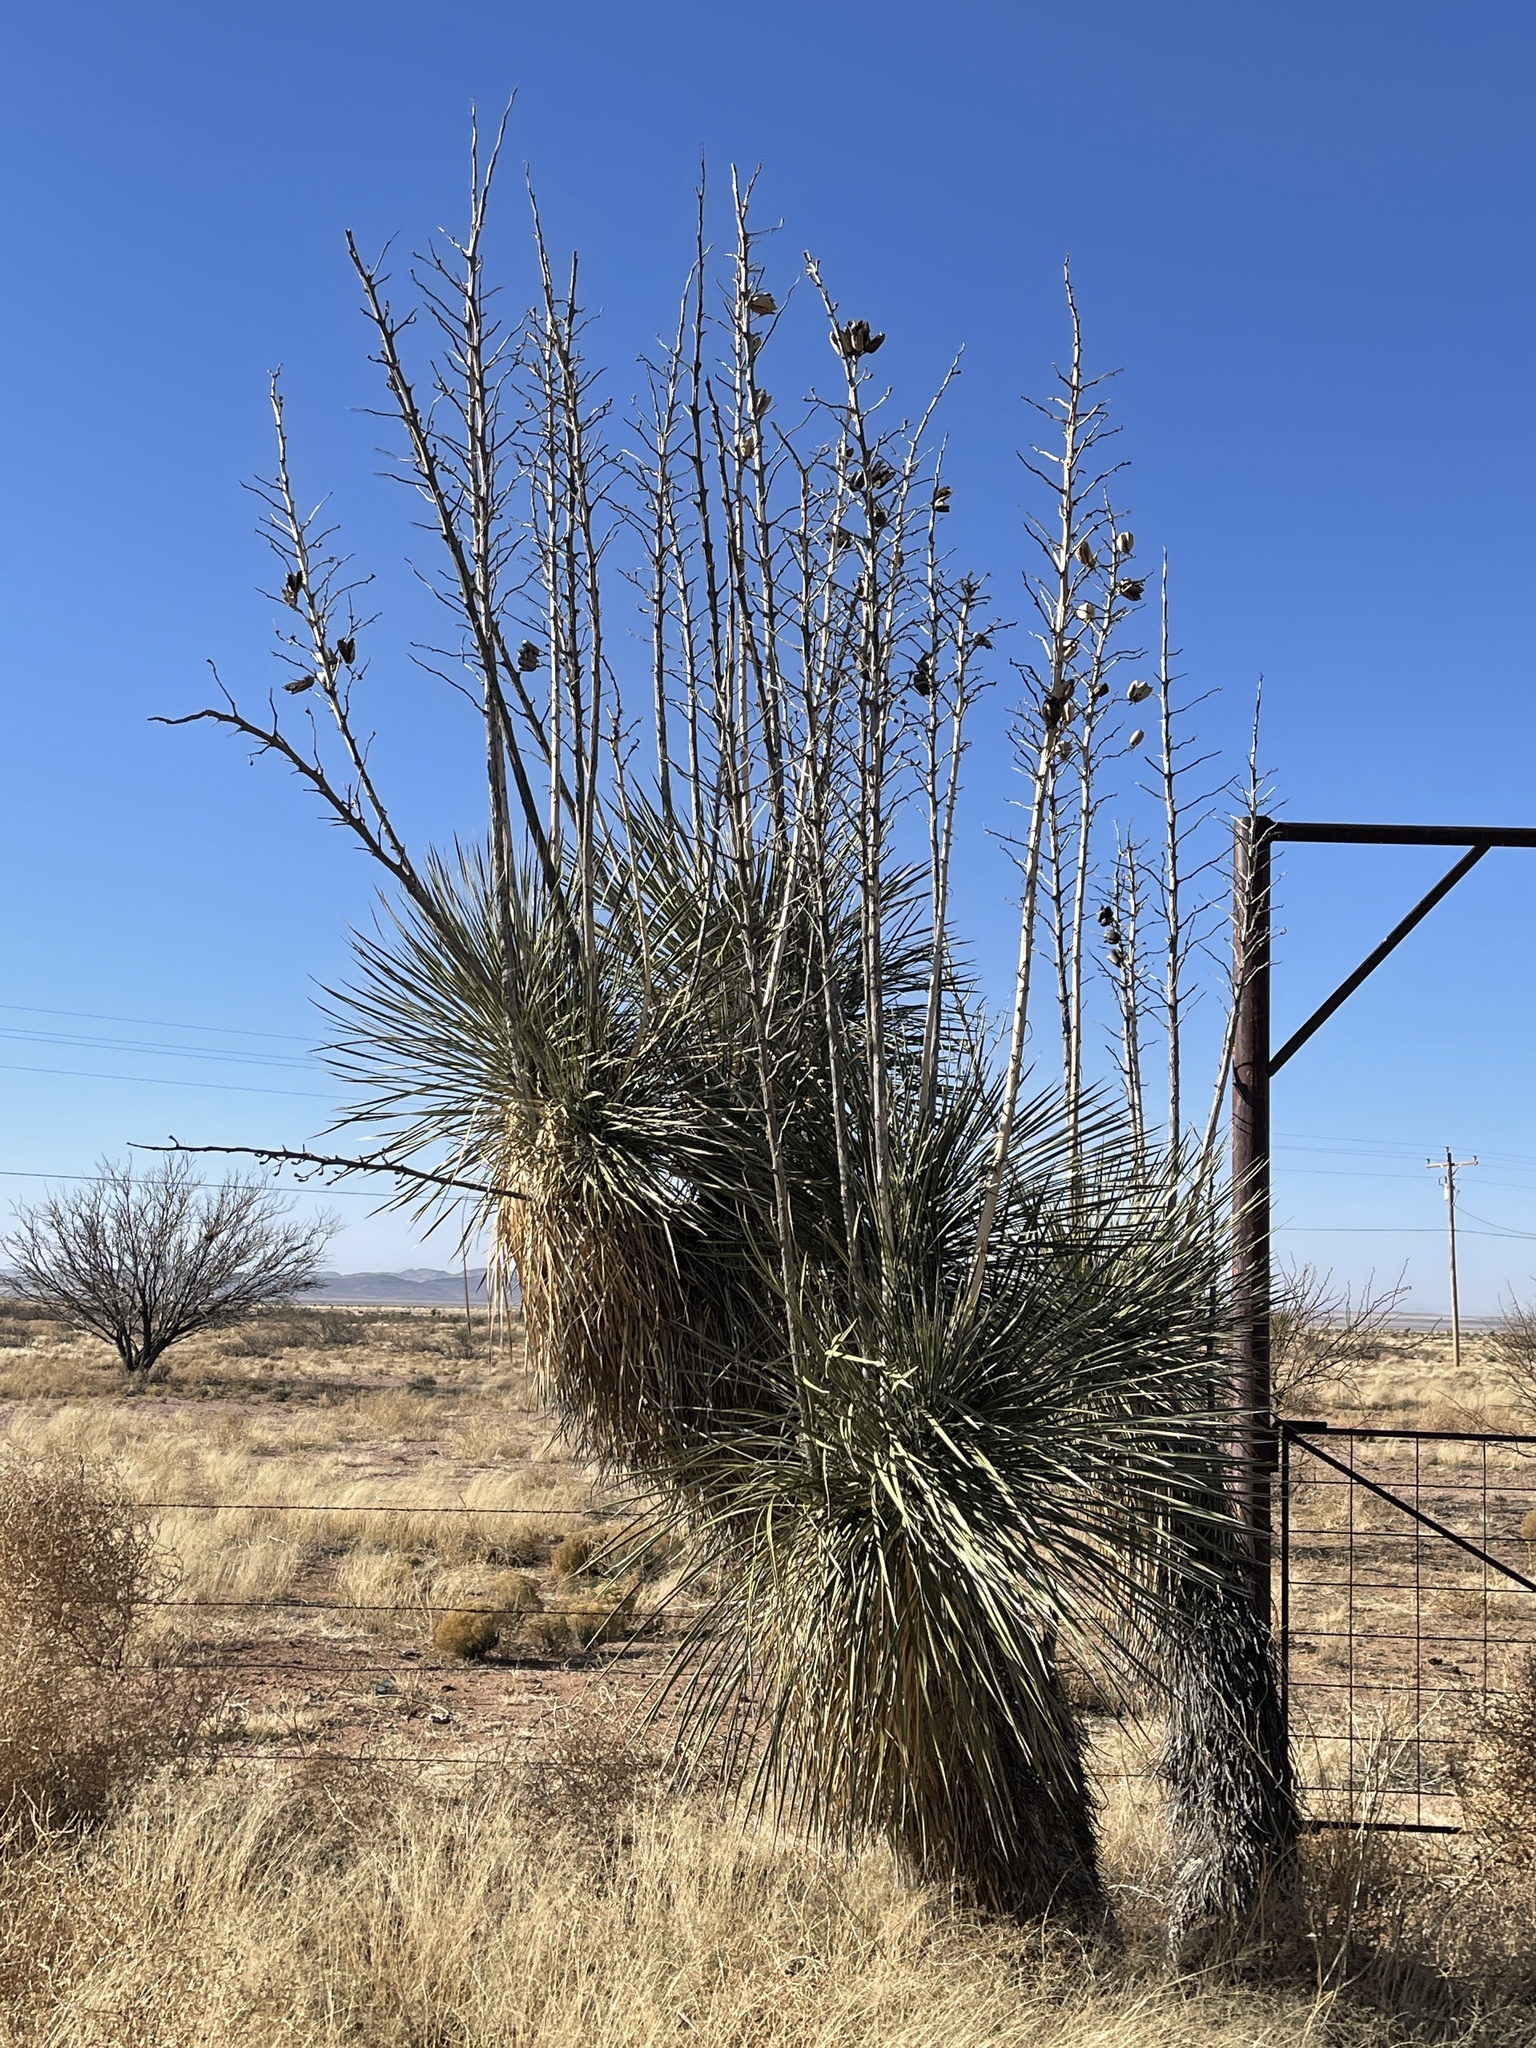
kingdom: Plantae
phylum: Tracheophyta
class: Liliopsida
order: Asparagales
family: Asparagaceae
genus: Yucca
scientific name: Yucca elata
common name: Palmella
